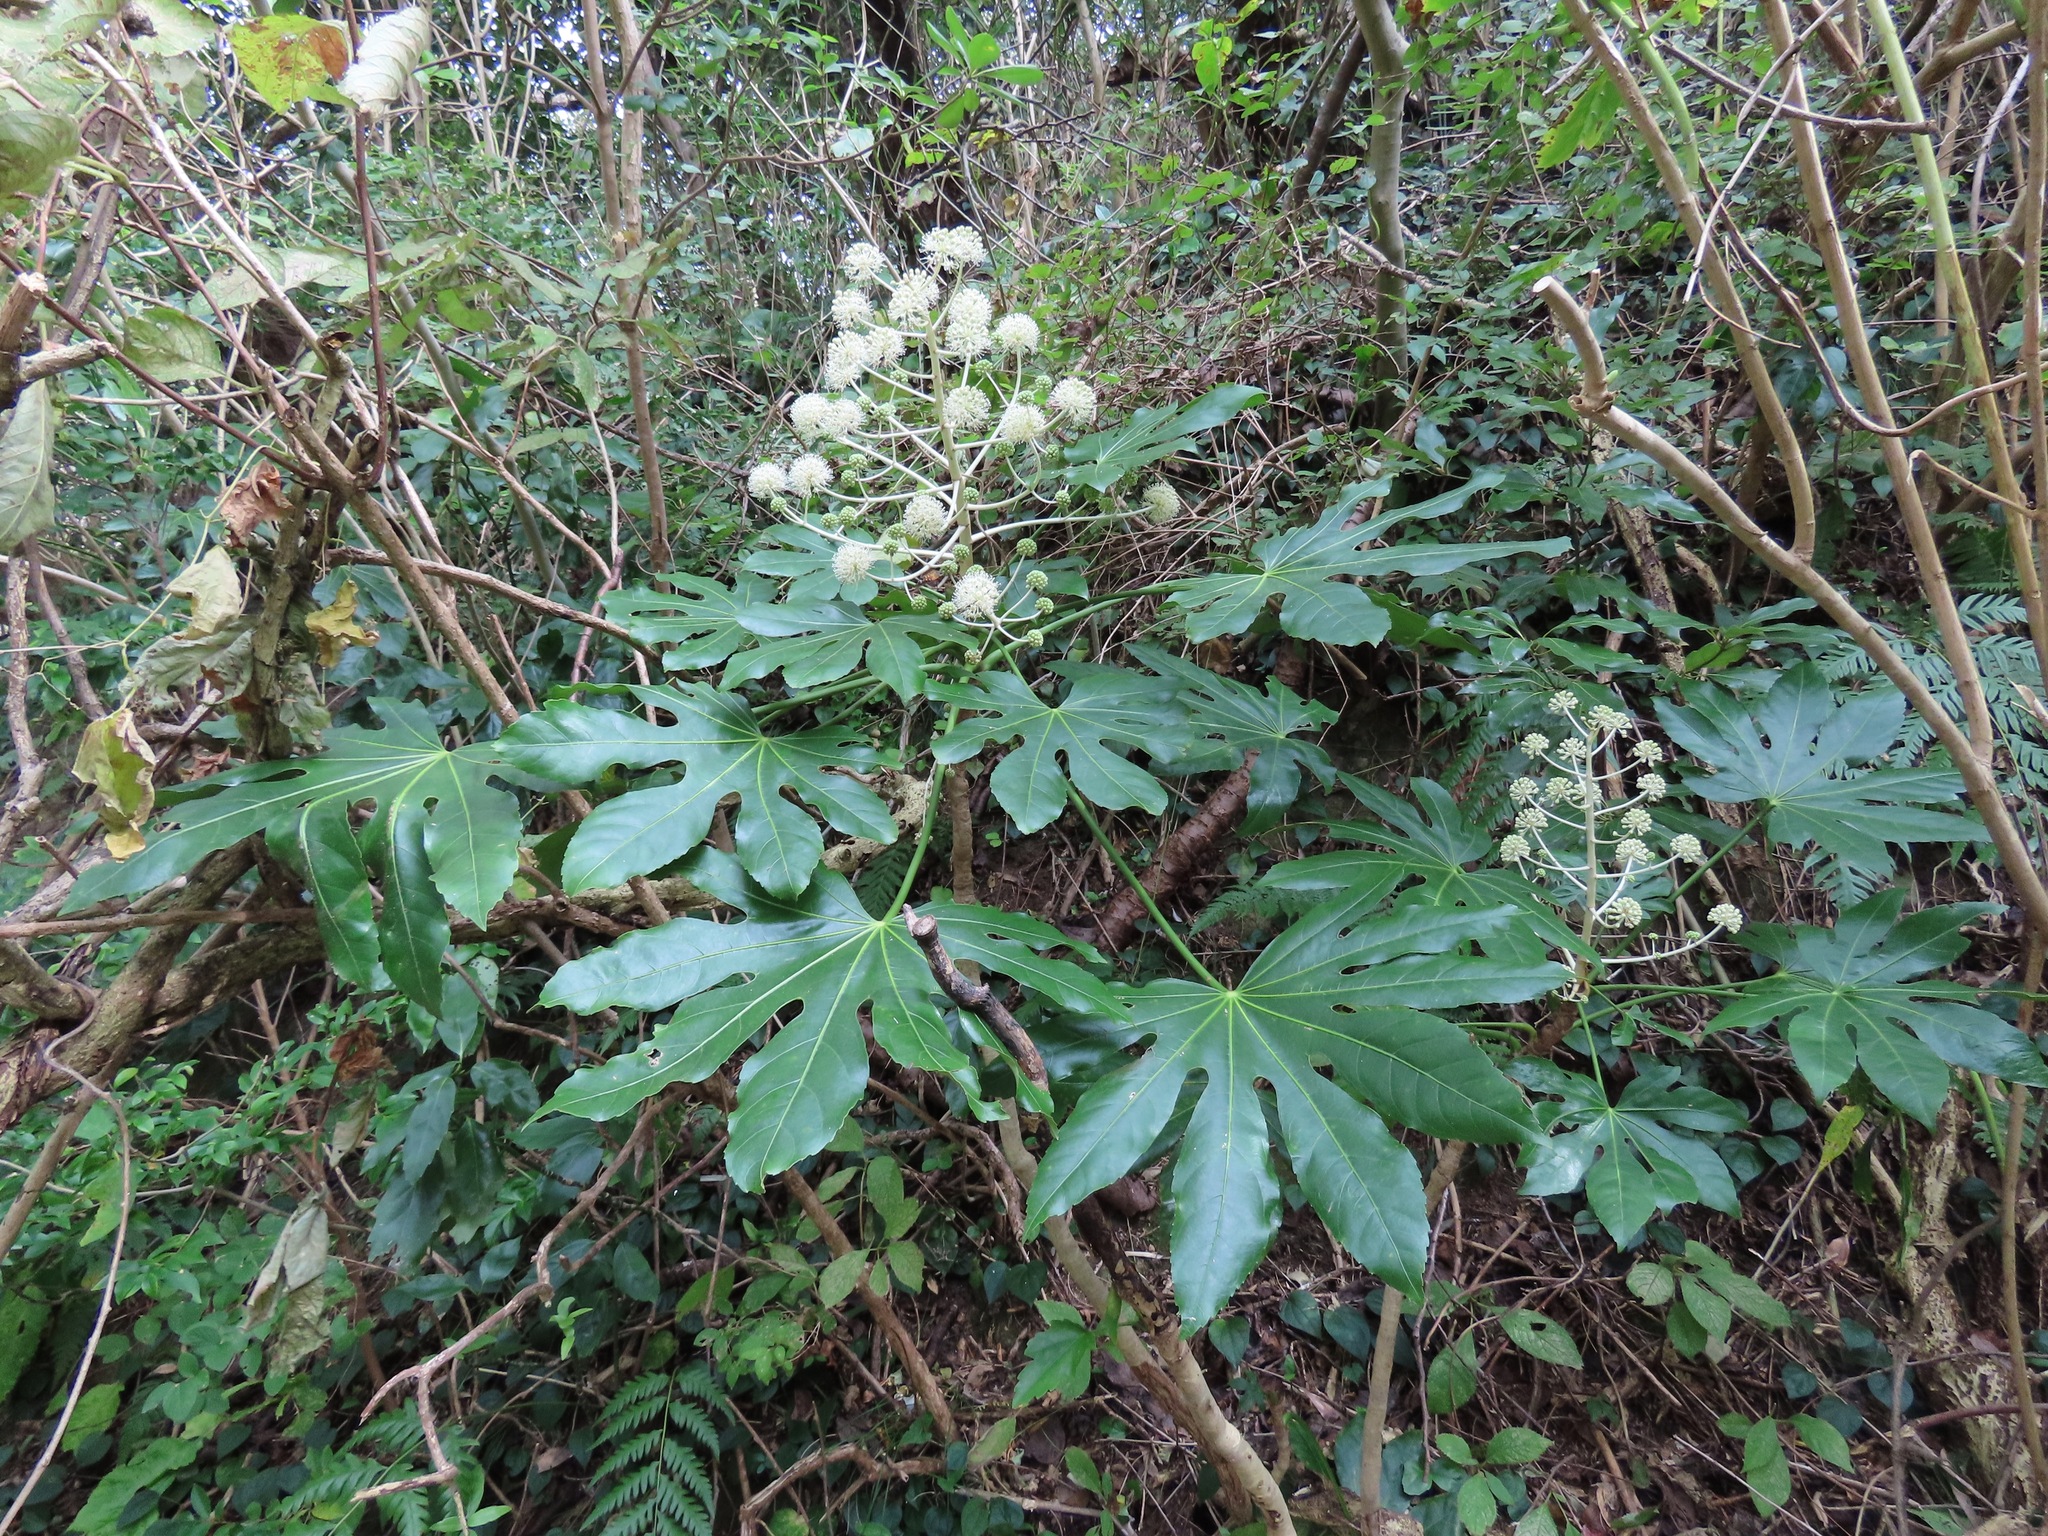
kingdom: Plantae
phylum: Tracheophyta
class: Magnoliopsida
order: Apiales
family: Araliaceae
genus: Fatsia
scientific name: Fatsia japonica
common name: Fatsia
